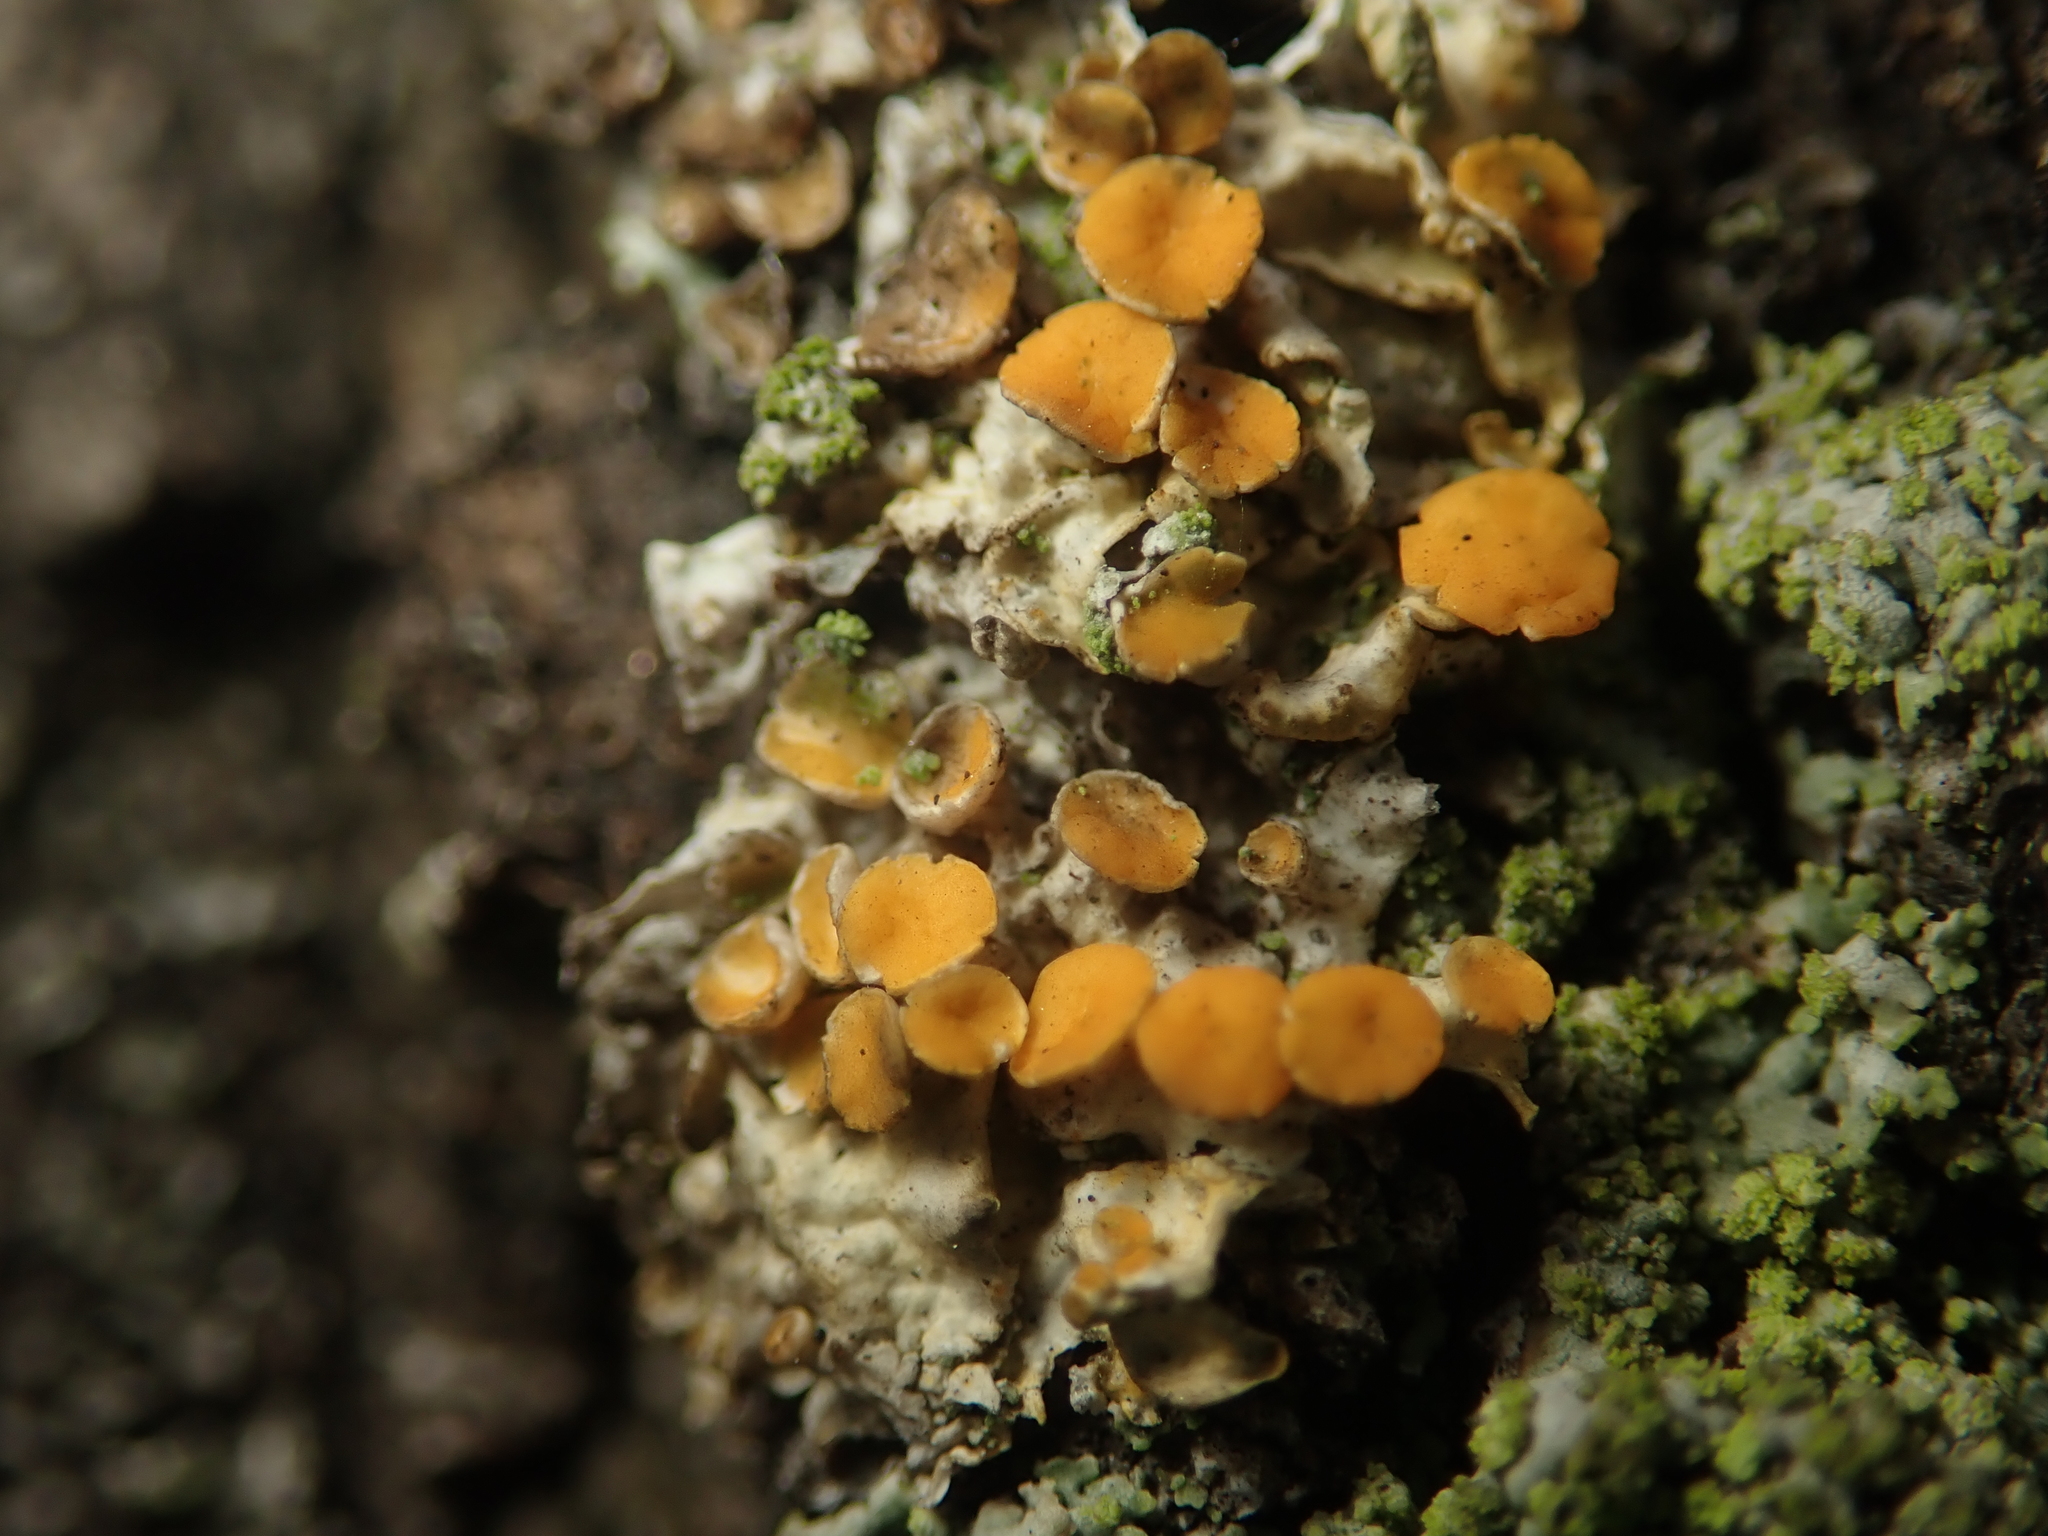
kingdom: Fungi
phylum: Ascomycota
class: Lecanoromycetes
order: Teloschistales
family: Teloschistaceae
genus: Xanthoria
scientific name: Xanthoria parietina
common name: Common orange lichen
